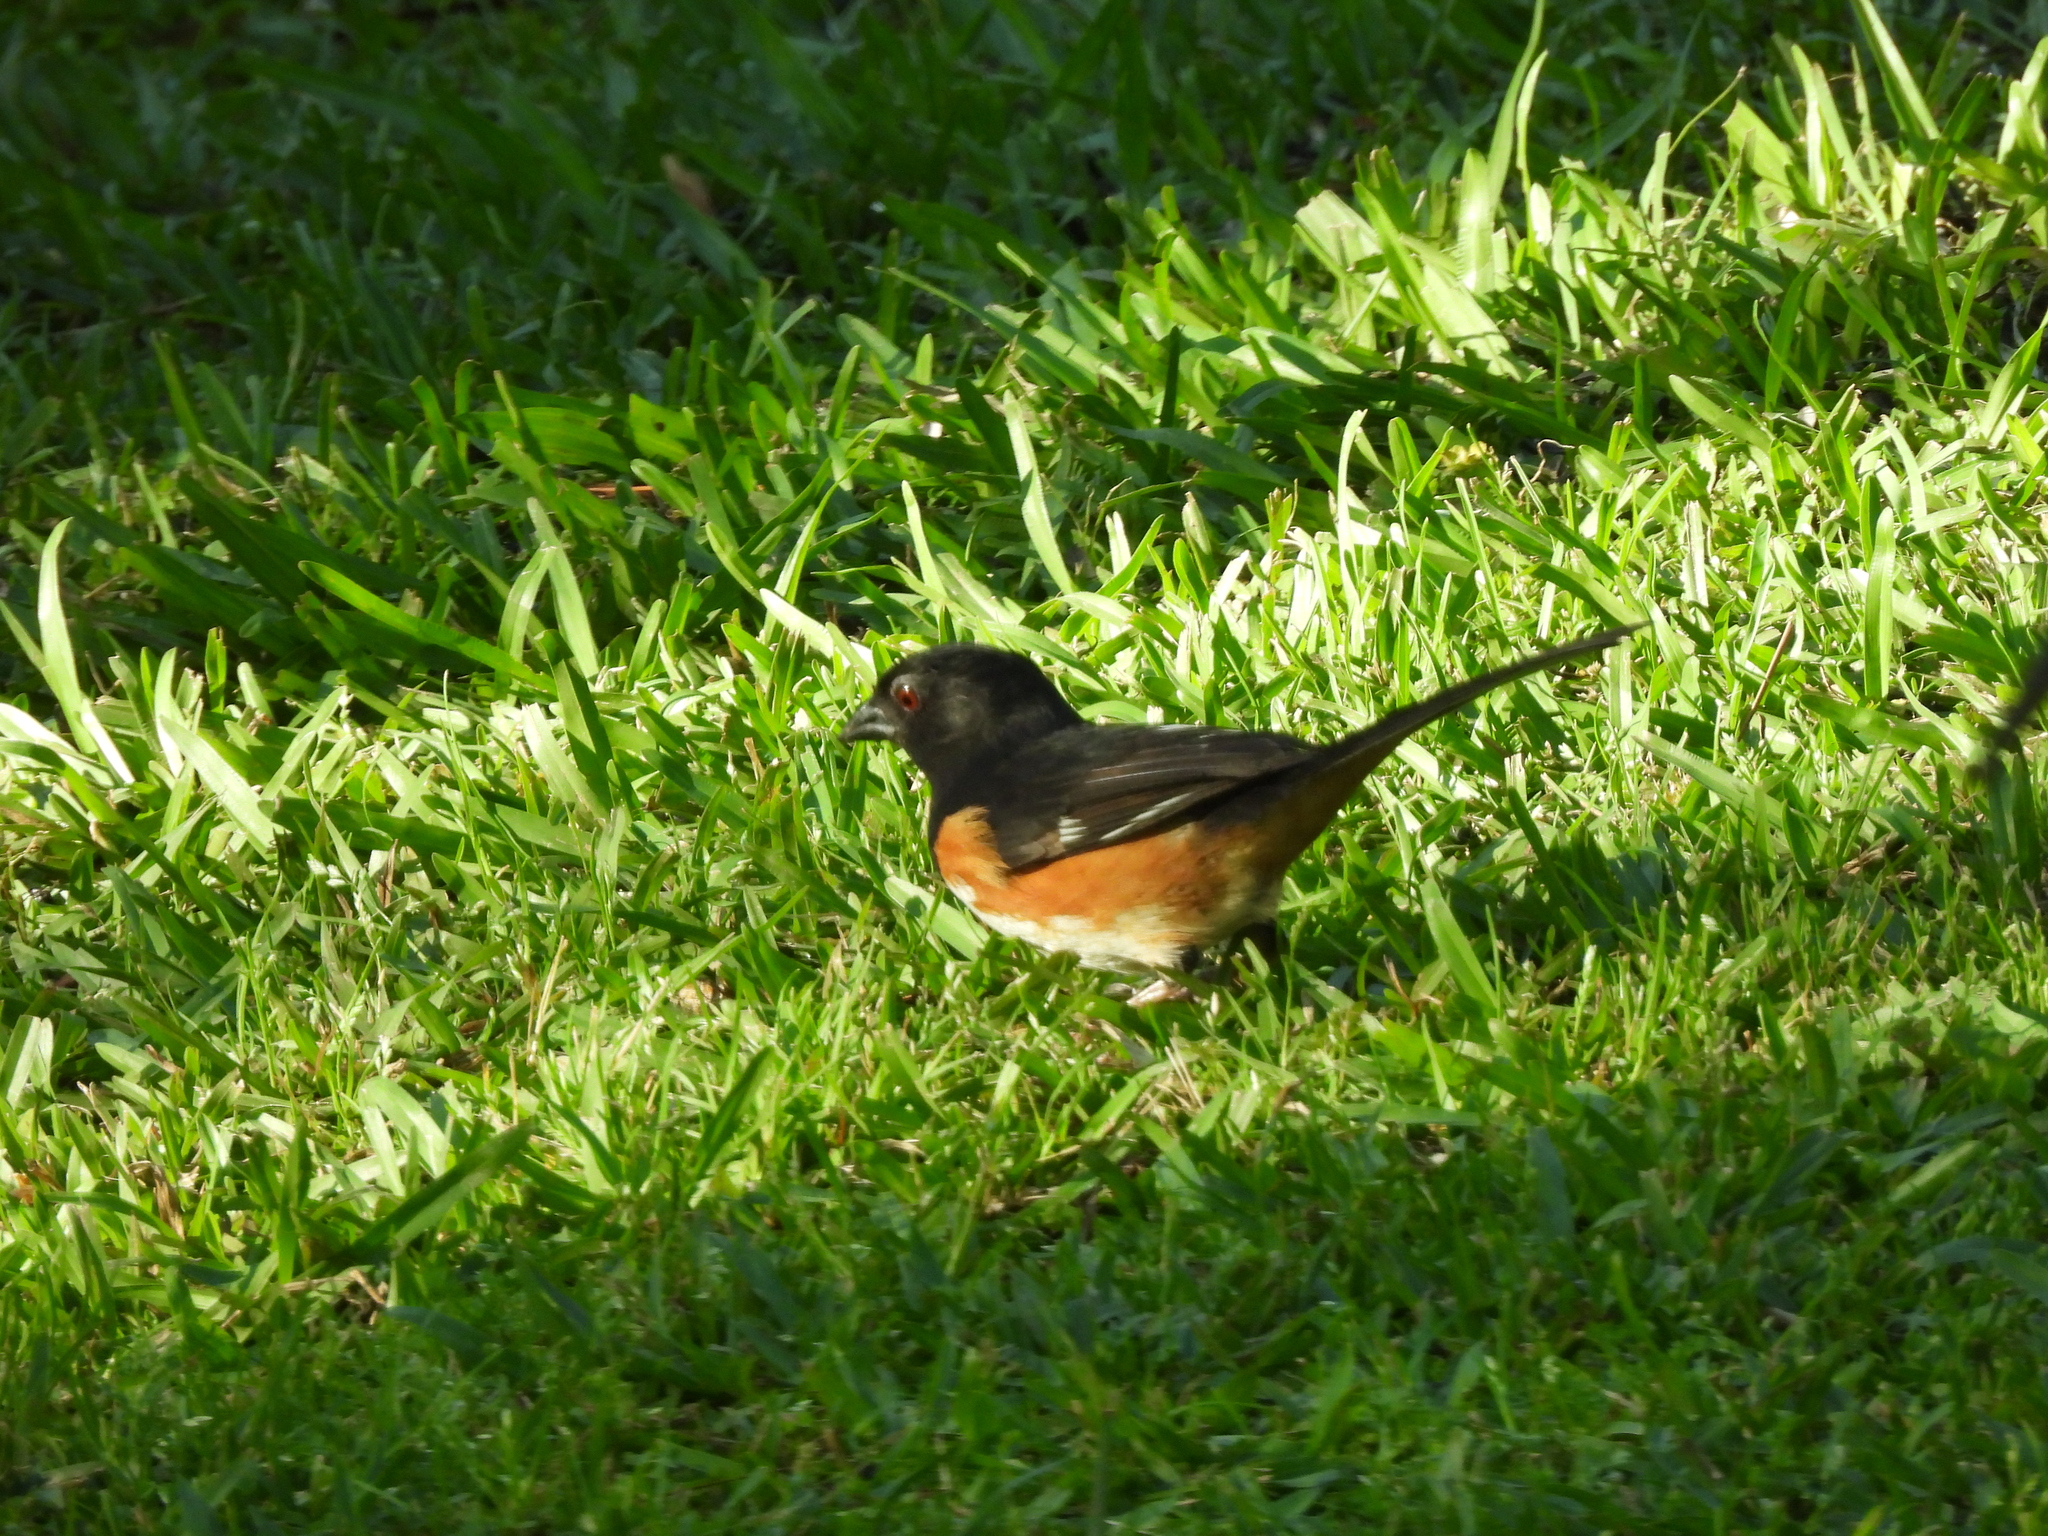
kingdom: Animalia
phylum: Chordata
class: Aves
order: Passeriformes
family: Passerellidae
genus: Pipilo
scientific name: Pipilo erythrophthalmus
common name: Eastern towhee
